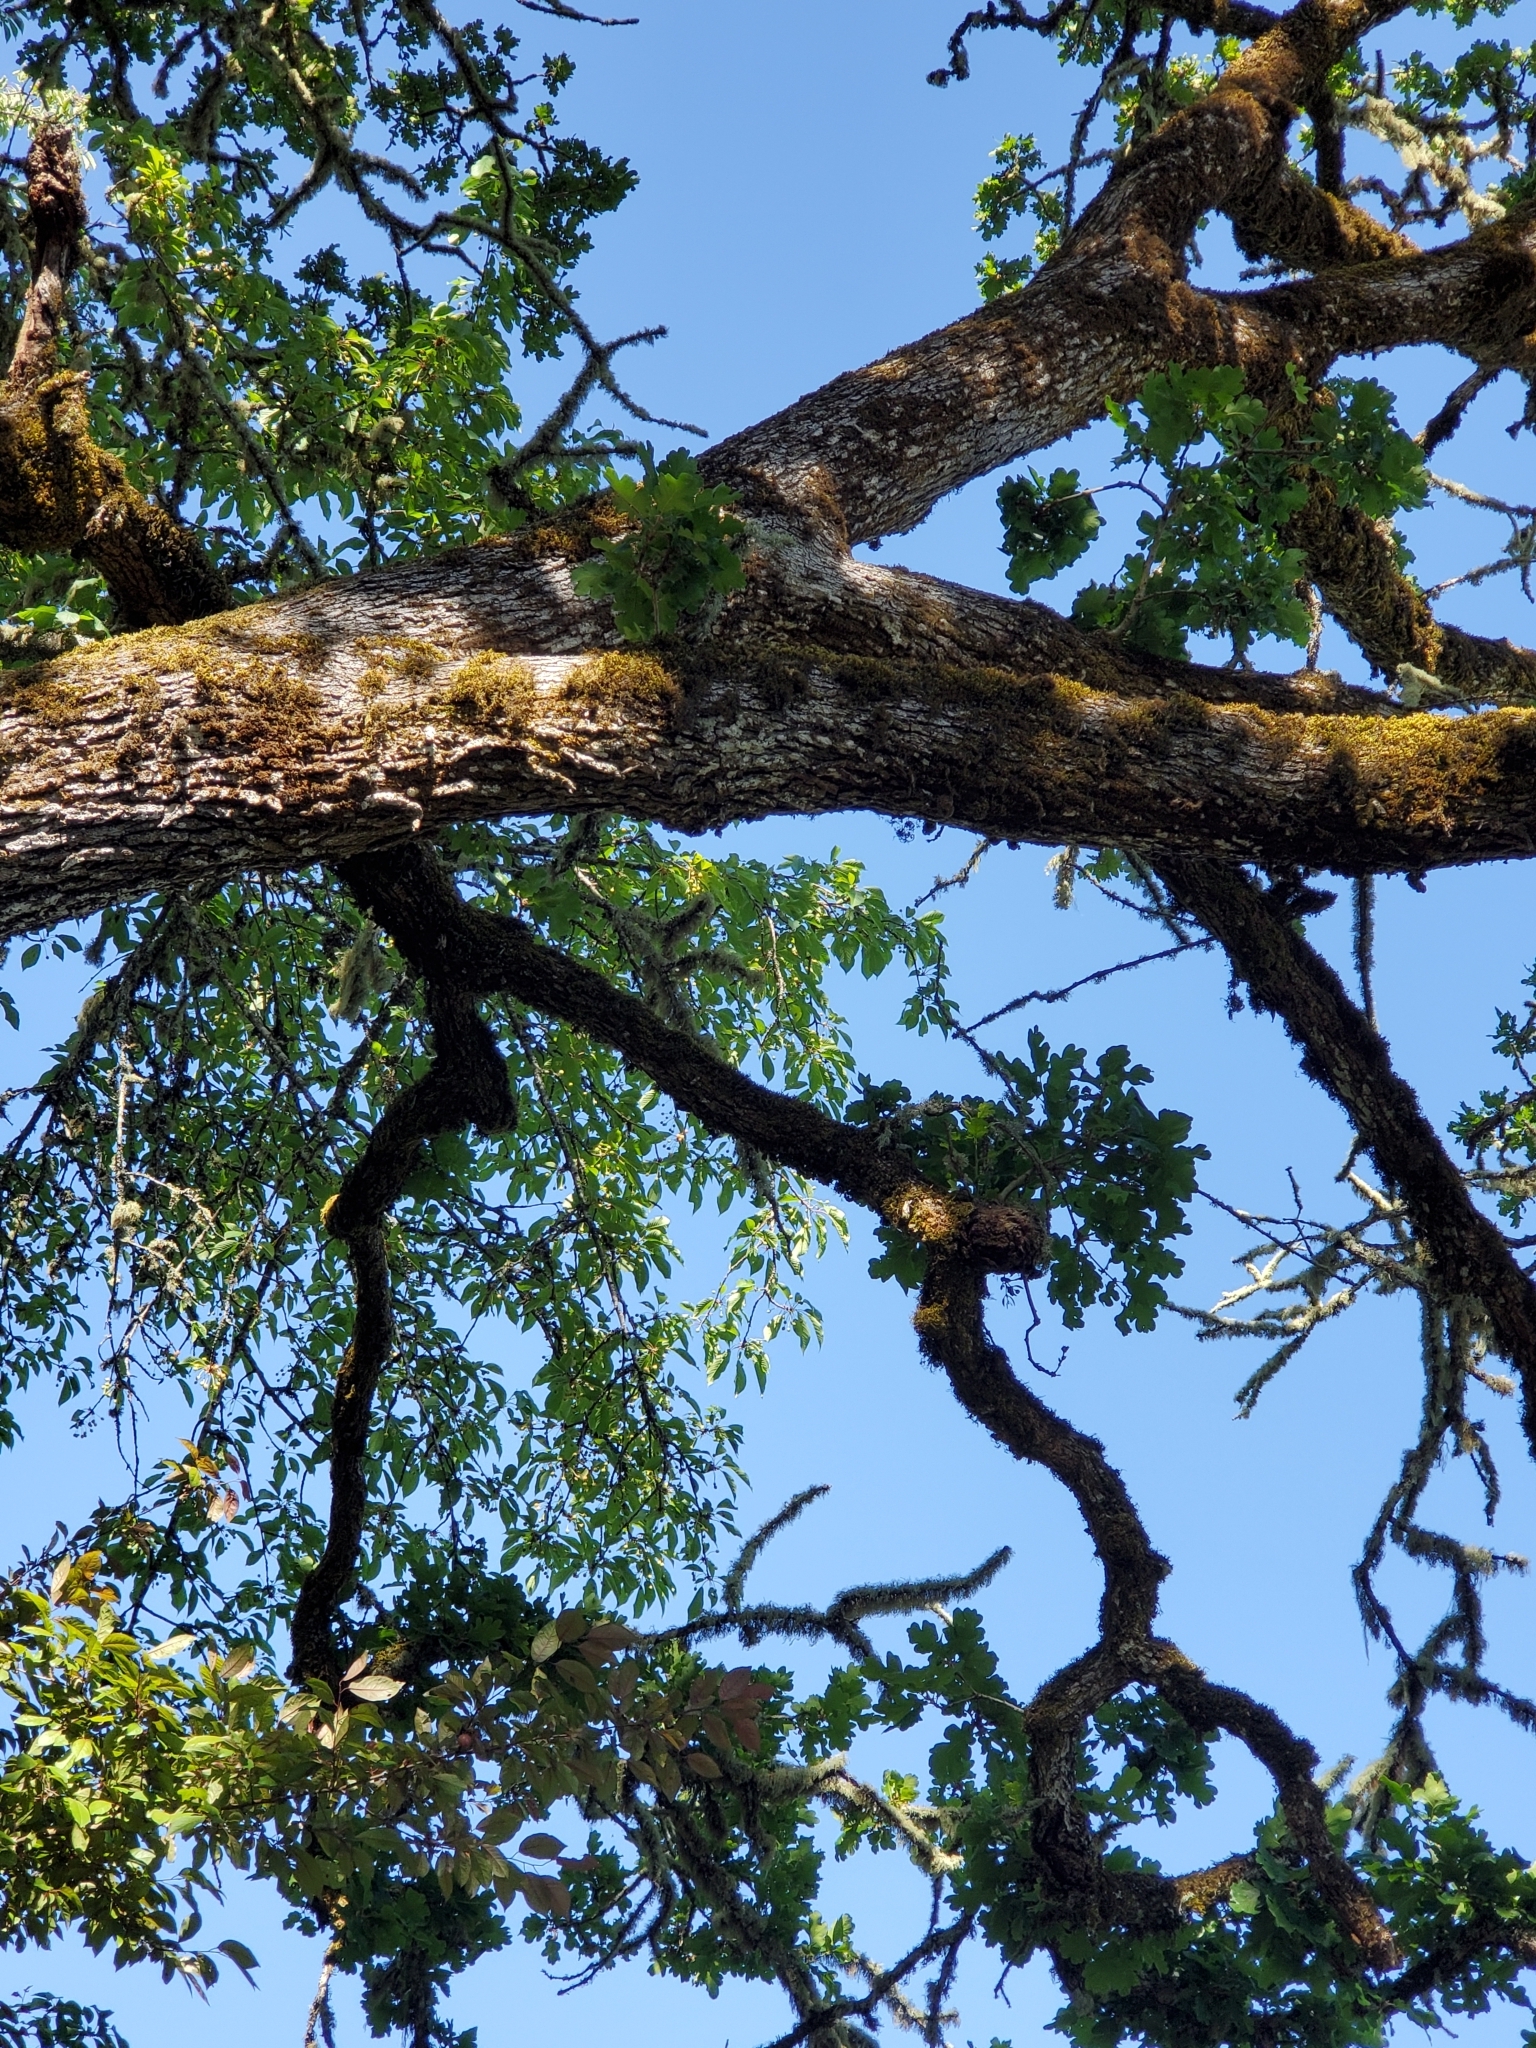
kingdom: Plantae
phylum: Tracheophyta
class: Magnoliopsida
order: Fagales
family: Fagaceae
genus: Quercus
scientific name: Quercus garryana
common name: Garry oak
